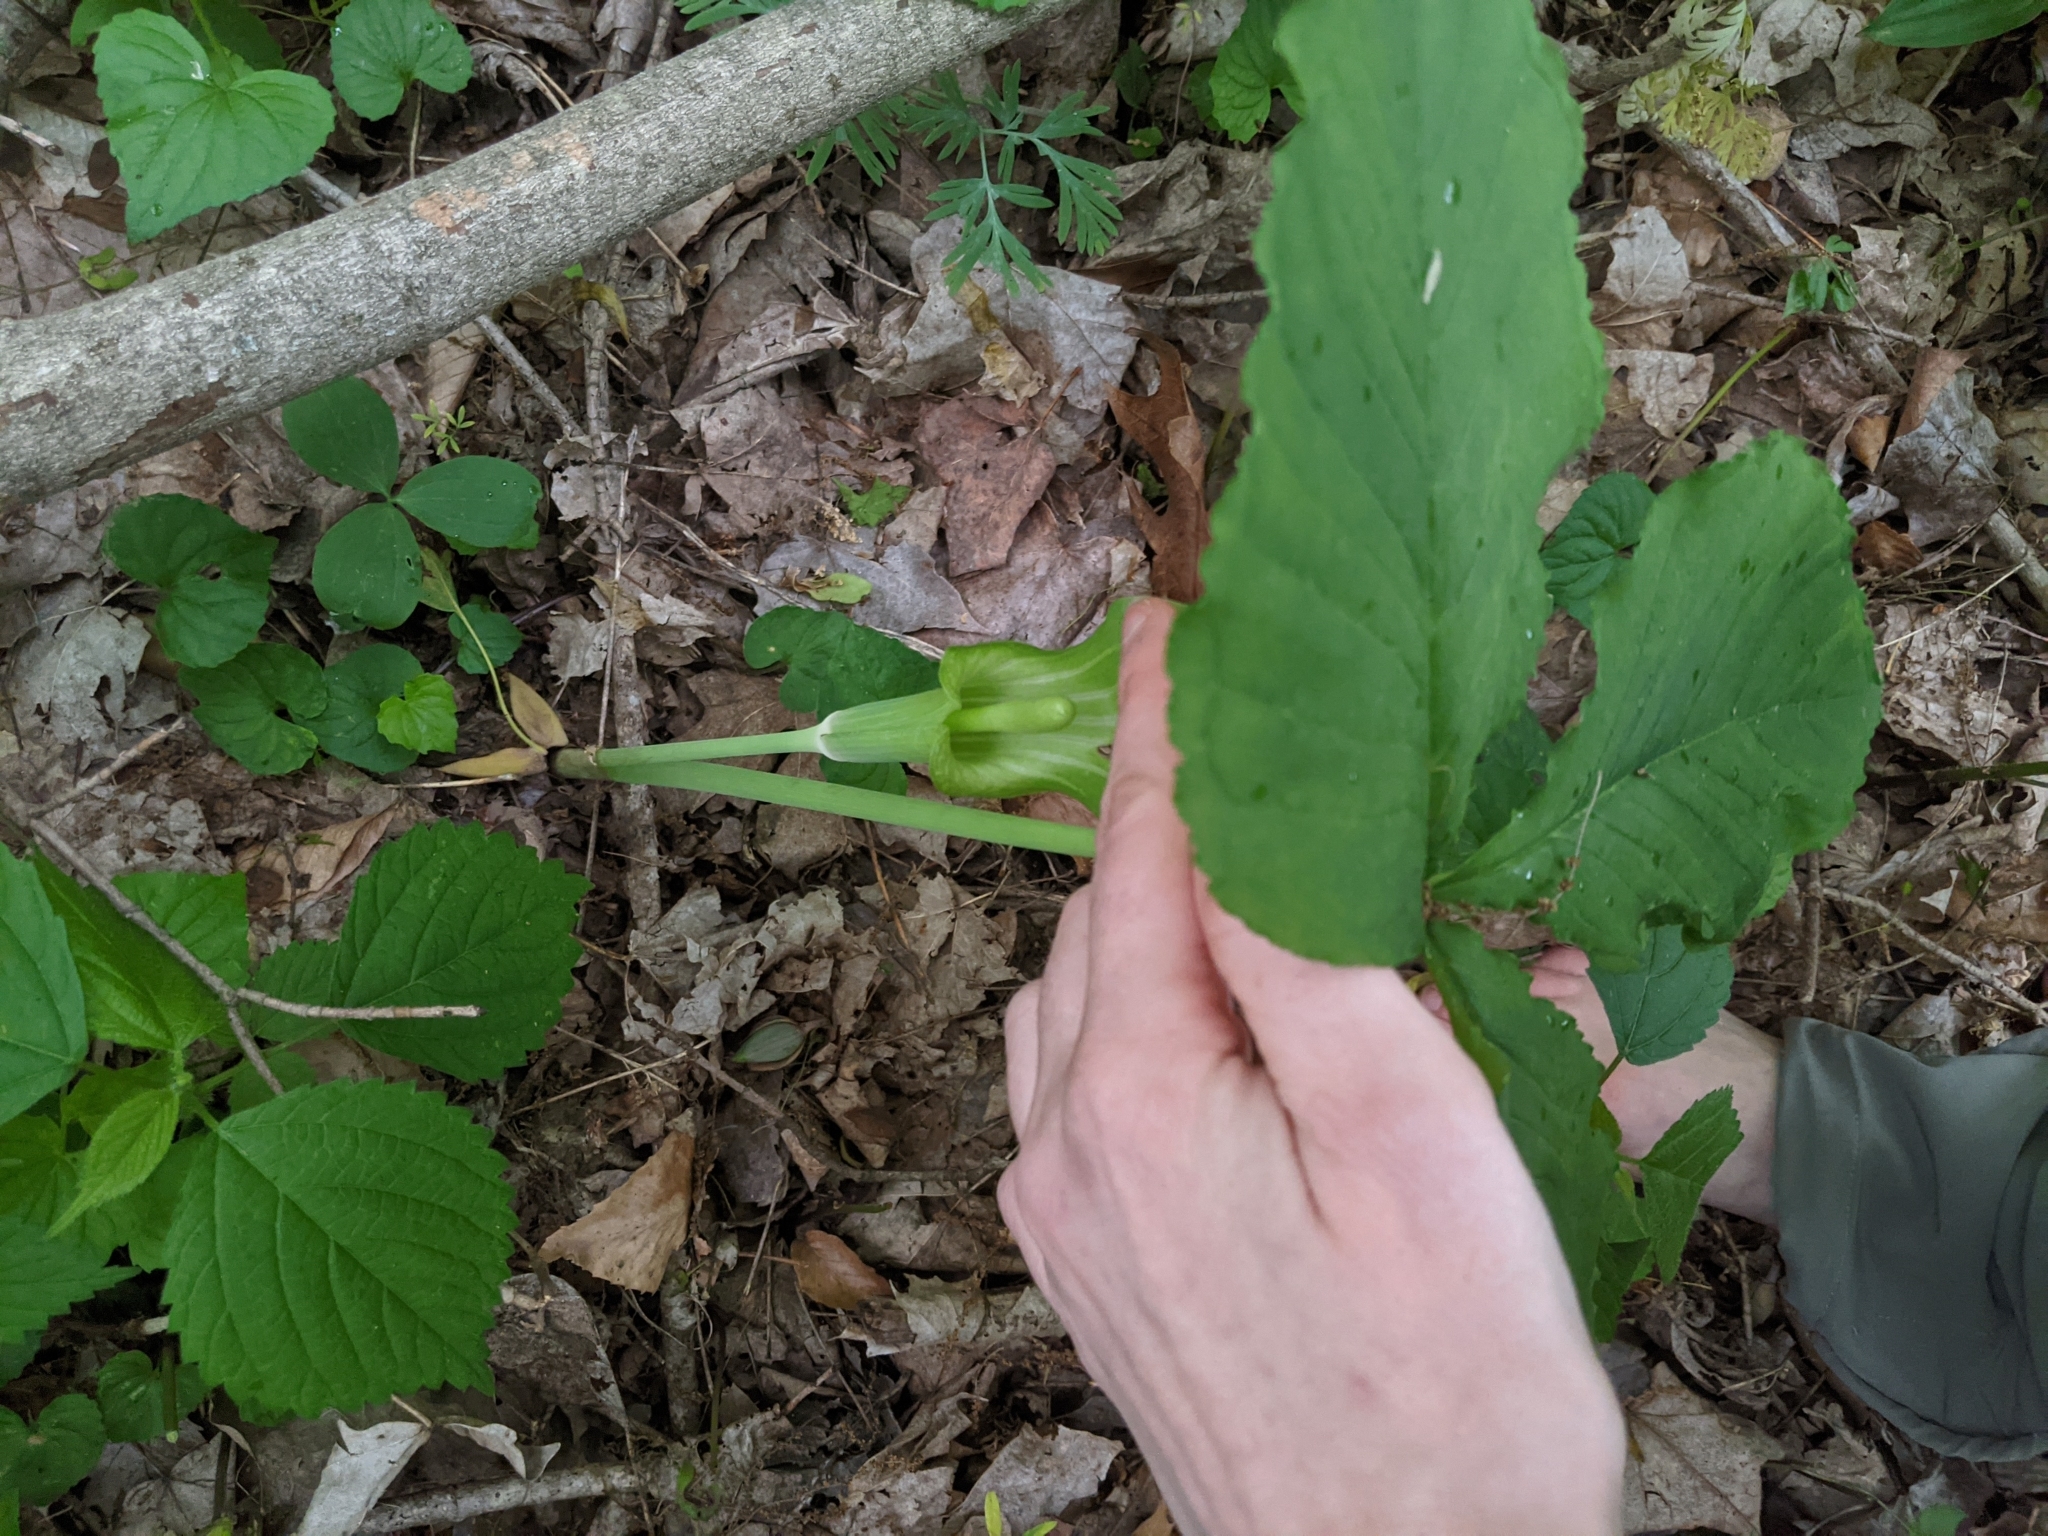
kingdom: Plantae
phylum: Tracheophyta
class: Liliopsida
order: Alismatales
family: Araceae
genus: Arisaema
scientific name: Arisaema triphyllum
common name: Jack-in-the-pulpit
